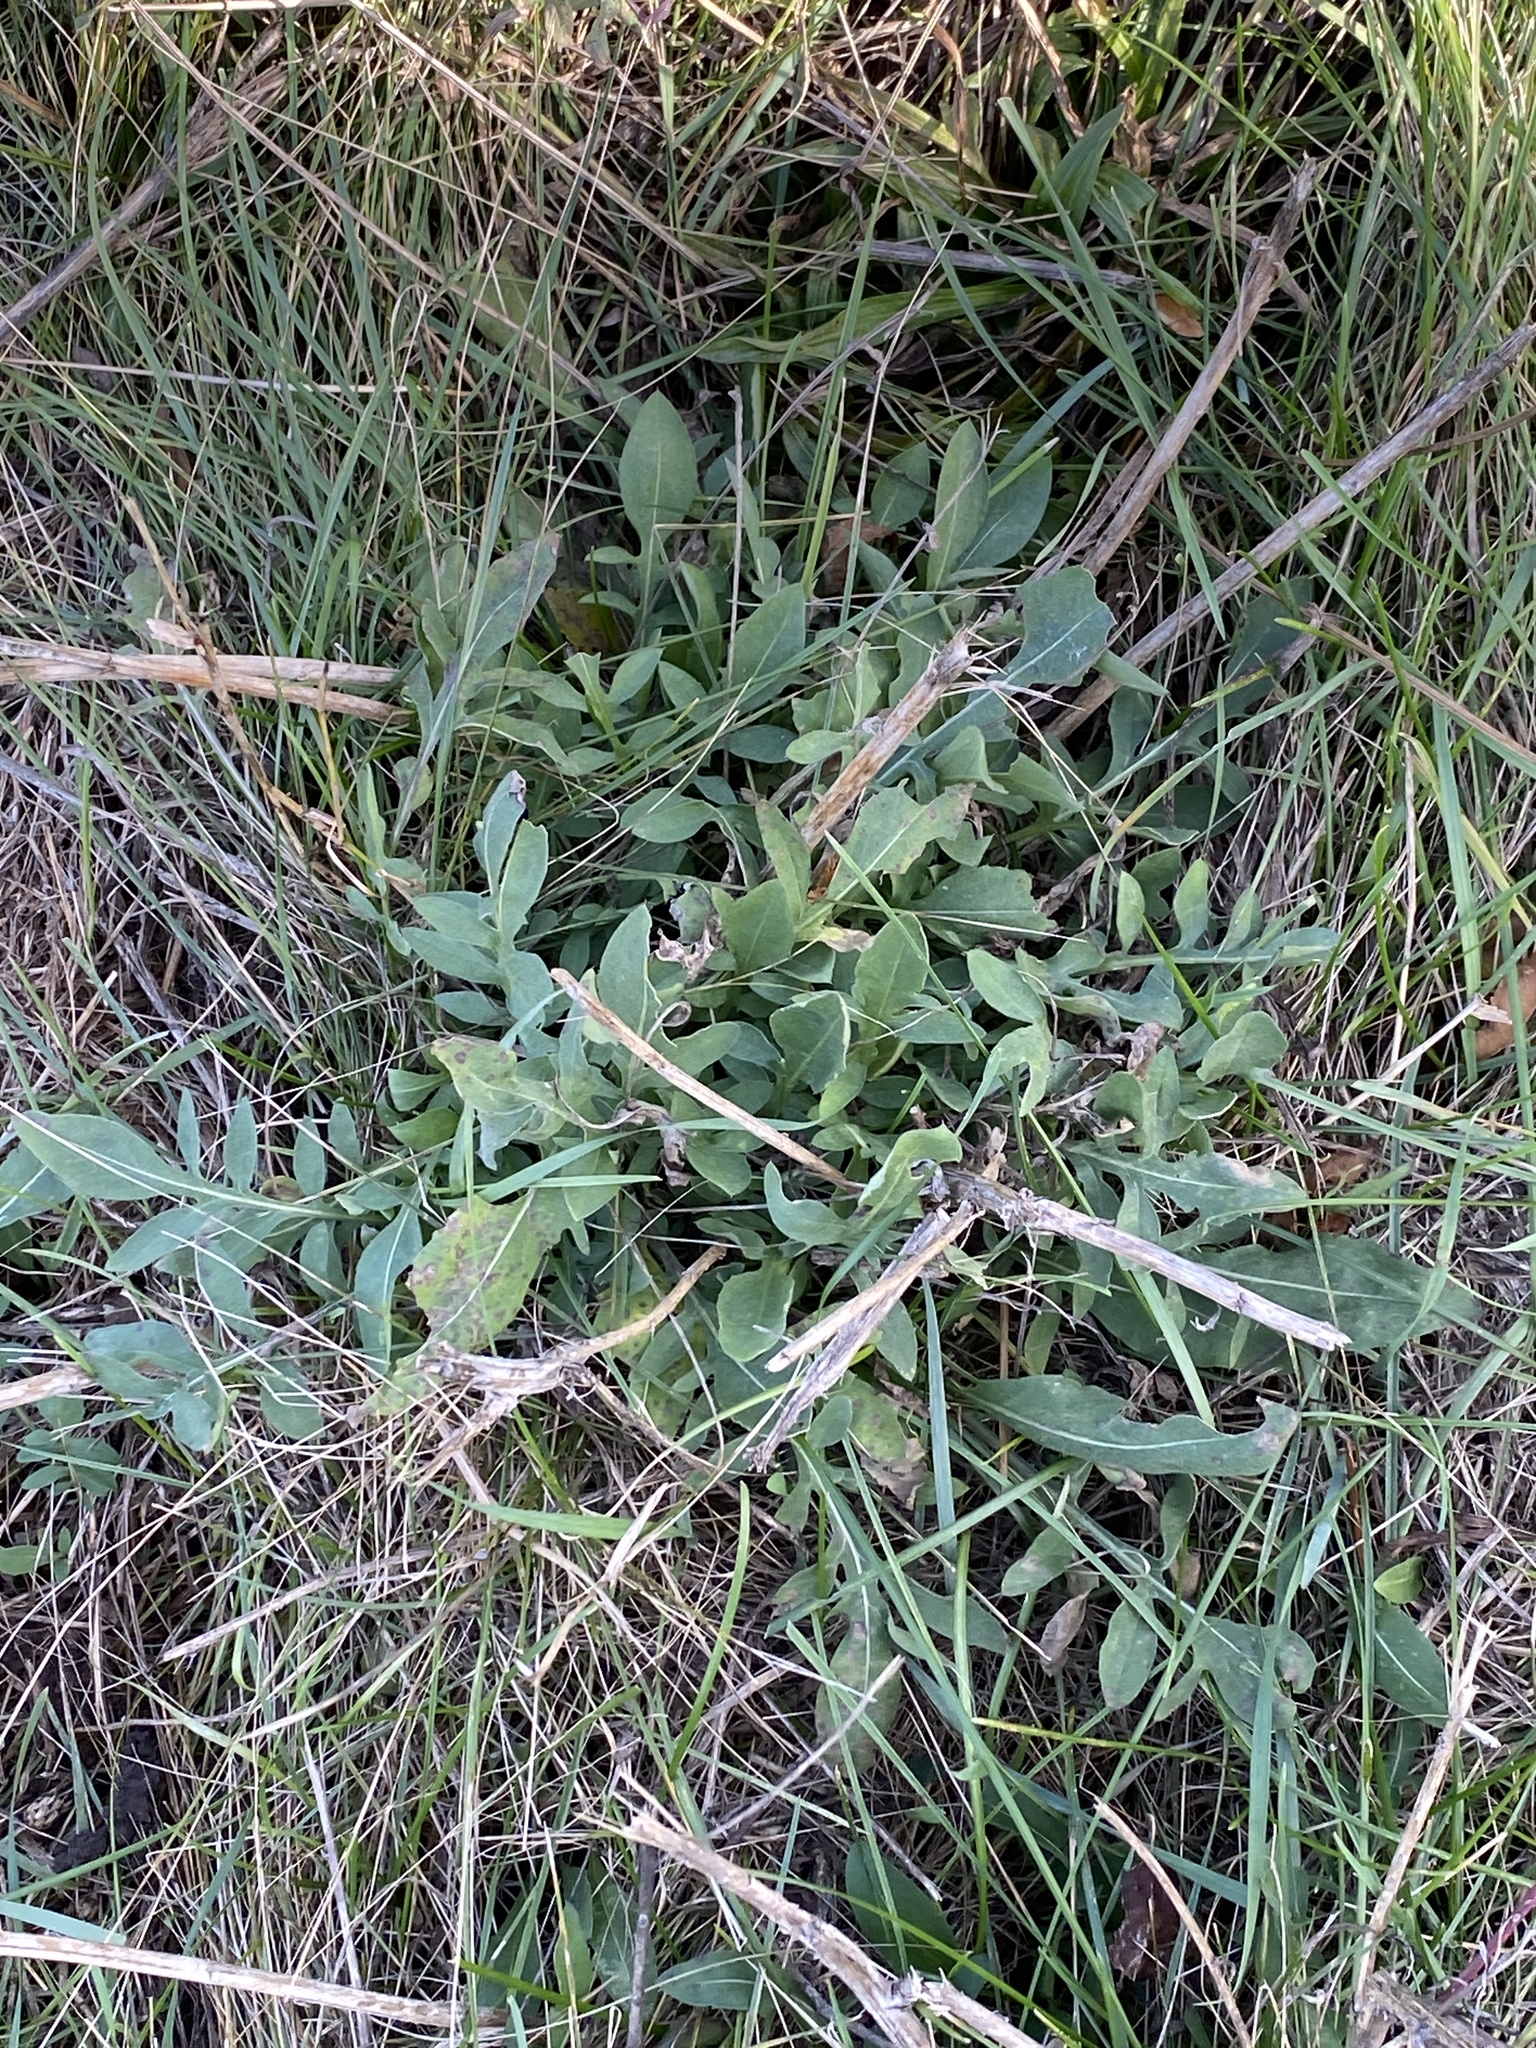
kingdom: Plantae
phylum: Tracheophyta
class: Magnoliopsida
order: Asterales
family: Asteraceae
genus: Centaurea
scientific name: Centaurea stoebe
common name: Spotted knapweed
